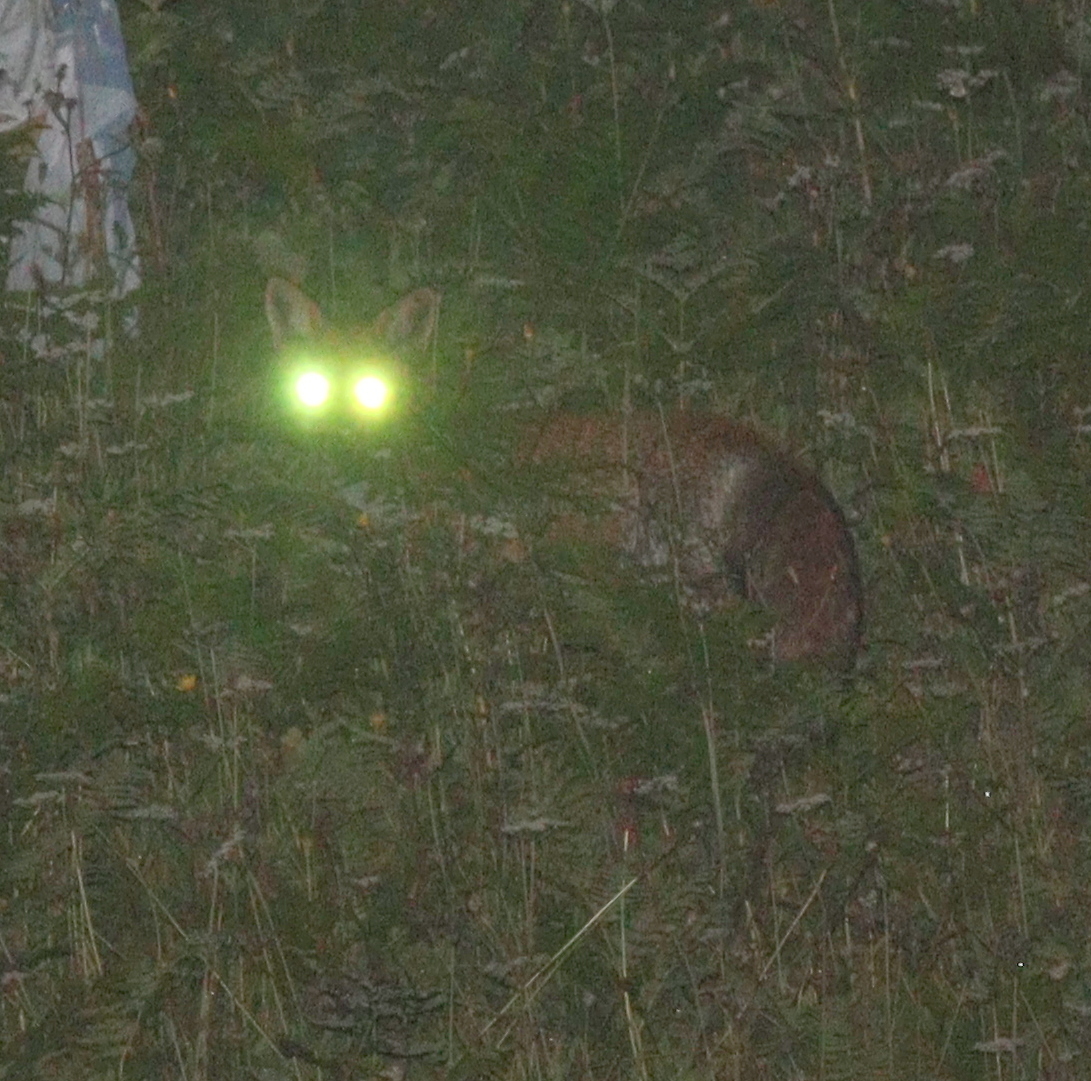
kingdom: Animalia
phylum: Chordata
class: Mammalia
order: Carnivora
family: Canidae
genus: Vulpes
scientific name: Vulpes vulpes
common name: Red fox
